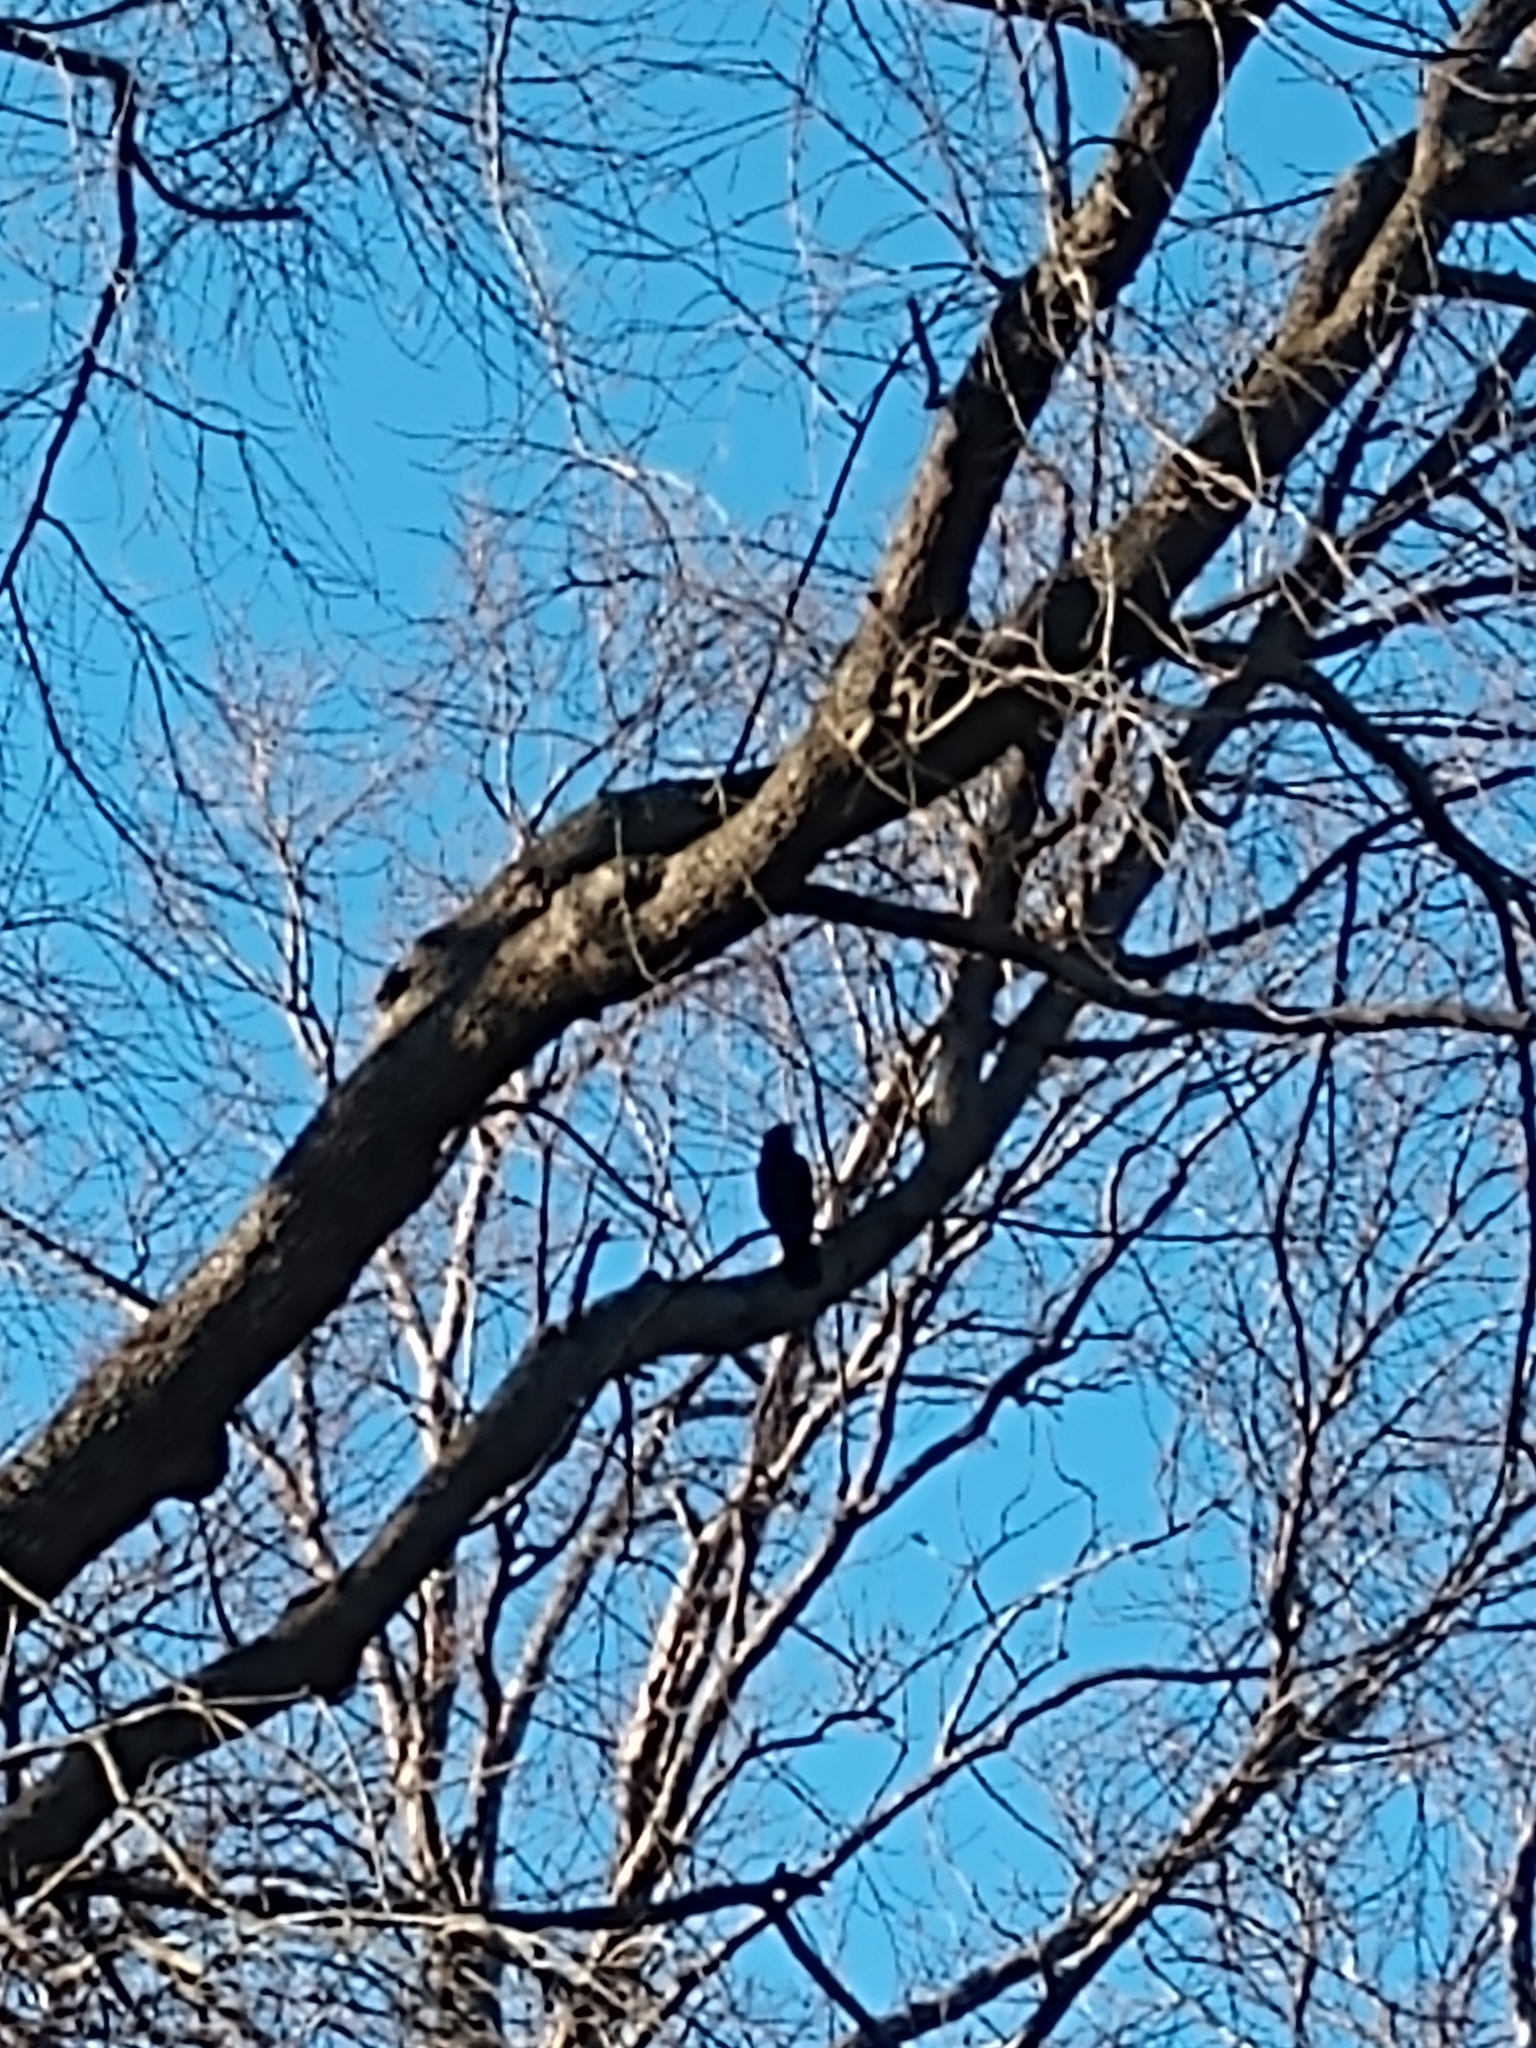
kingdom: Animalia
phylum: Chordata
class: Aves
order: Passeriformes
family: Corvidae
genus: Corvus
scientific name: Corvus brachyrhynchos
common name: American crow
